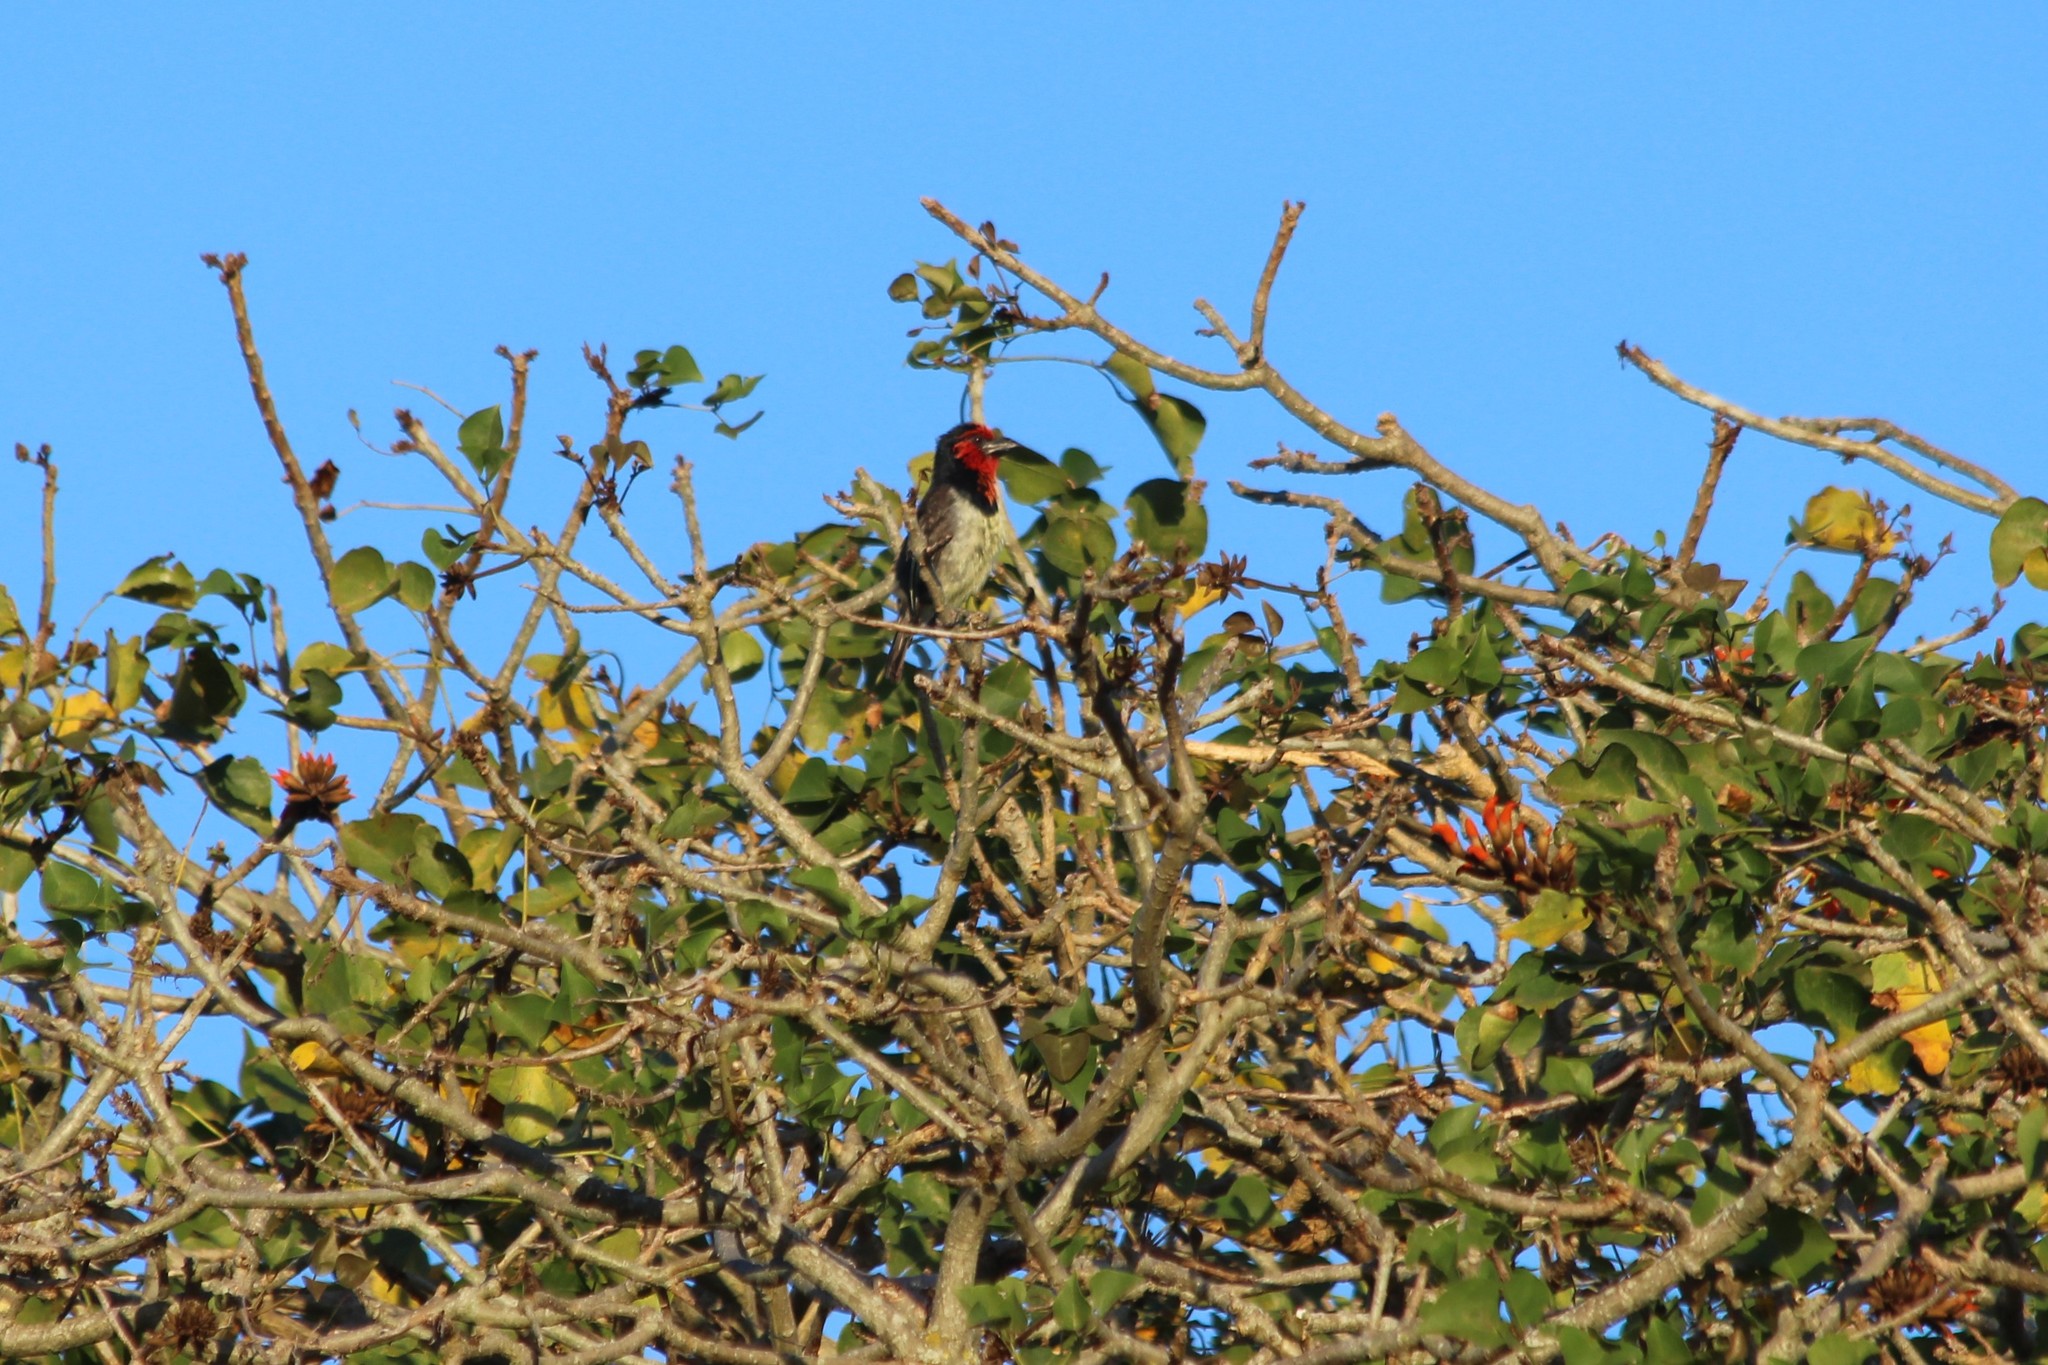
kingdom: Animalia
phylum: Chordata
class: Aves
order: Piciformes
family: Lybiidae
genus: Lybius
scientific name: Lybius torquatus
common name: Black-collared barbet
